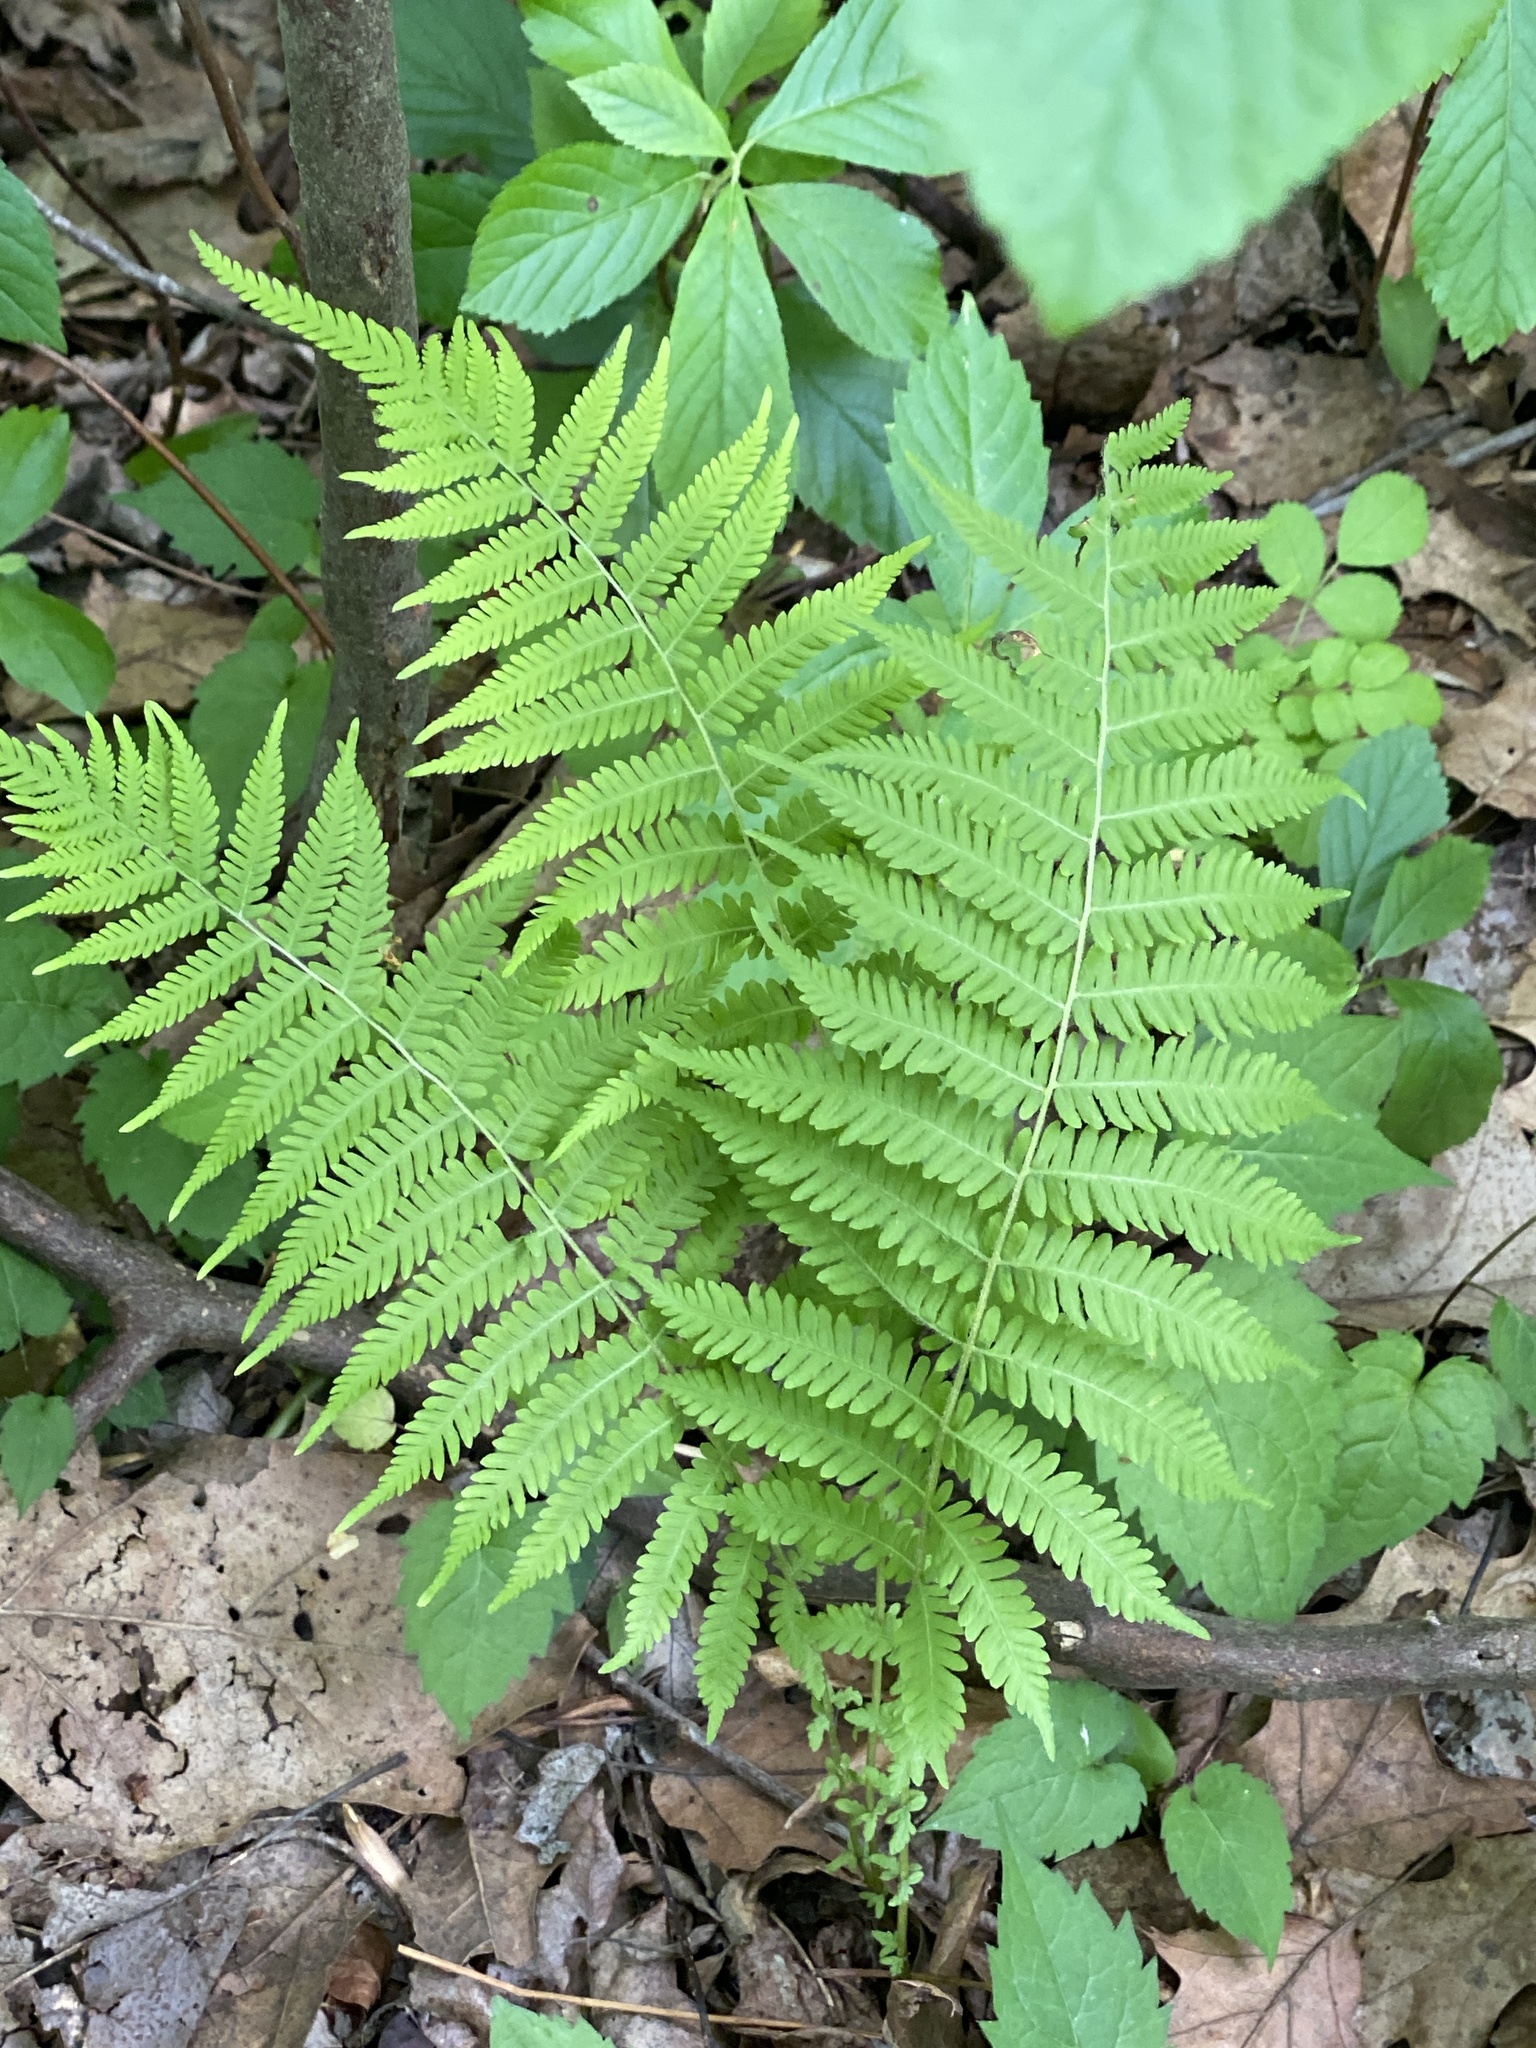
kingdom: Plantae
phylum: Tracheophyta
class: Polypodiopsida
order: Polypodiales
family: Thelypteridaceae
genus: Amauropelta
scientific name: Amauropelta noveboracensis
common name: New york fern
